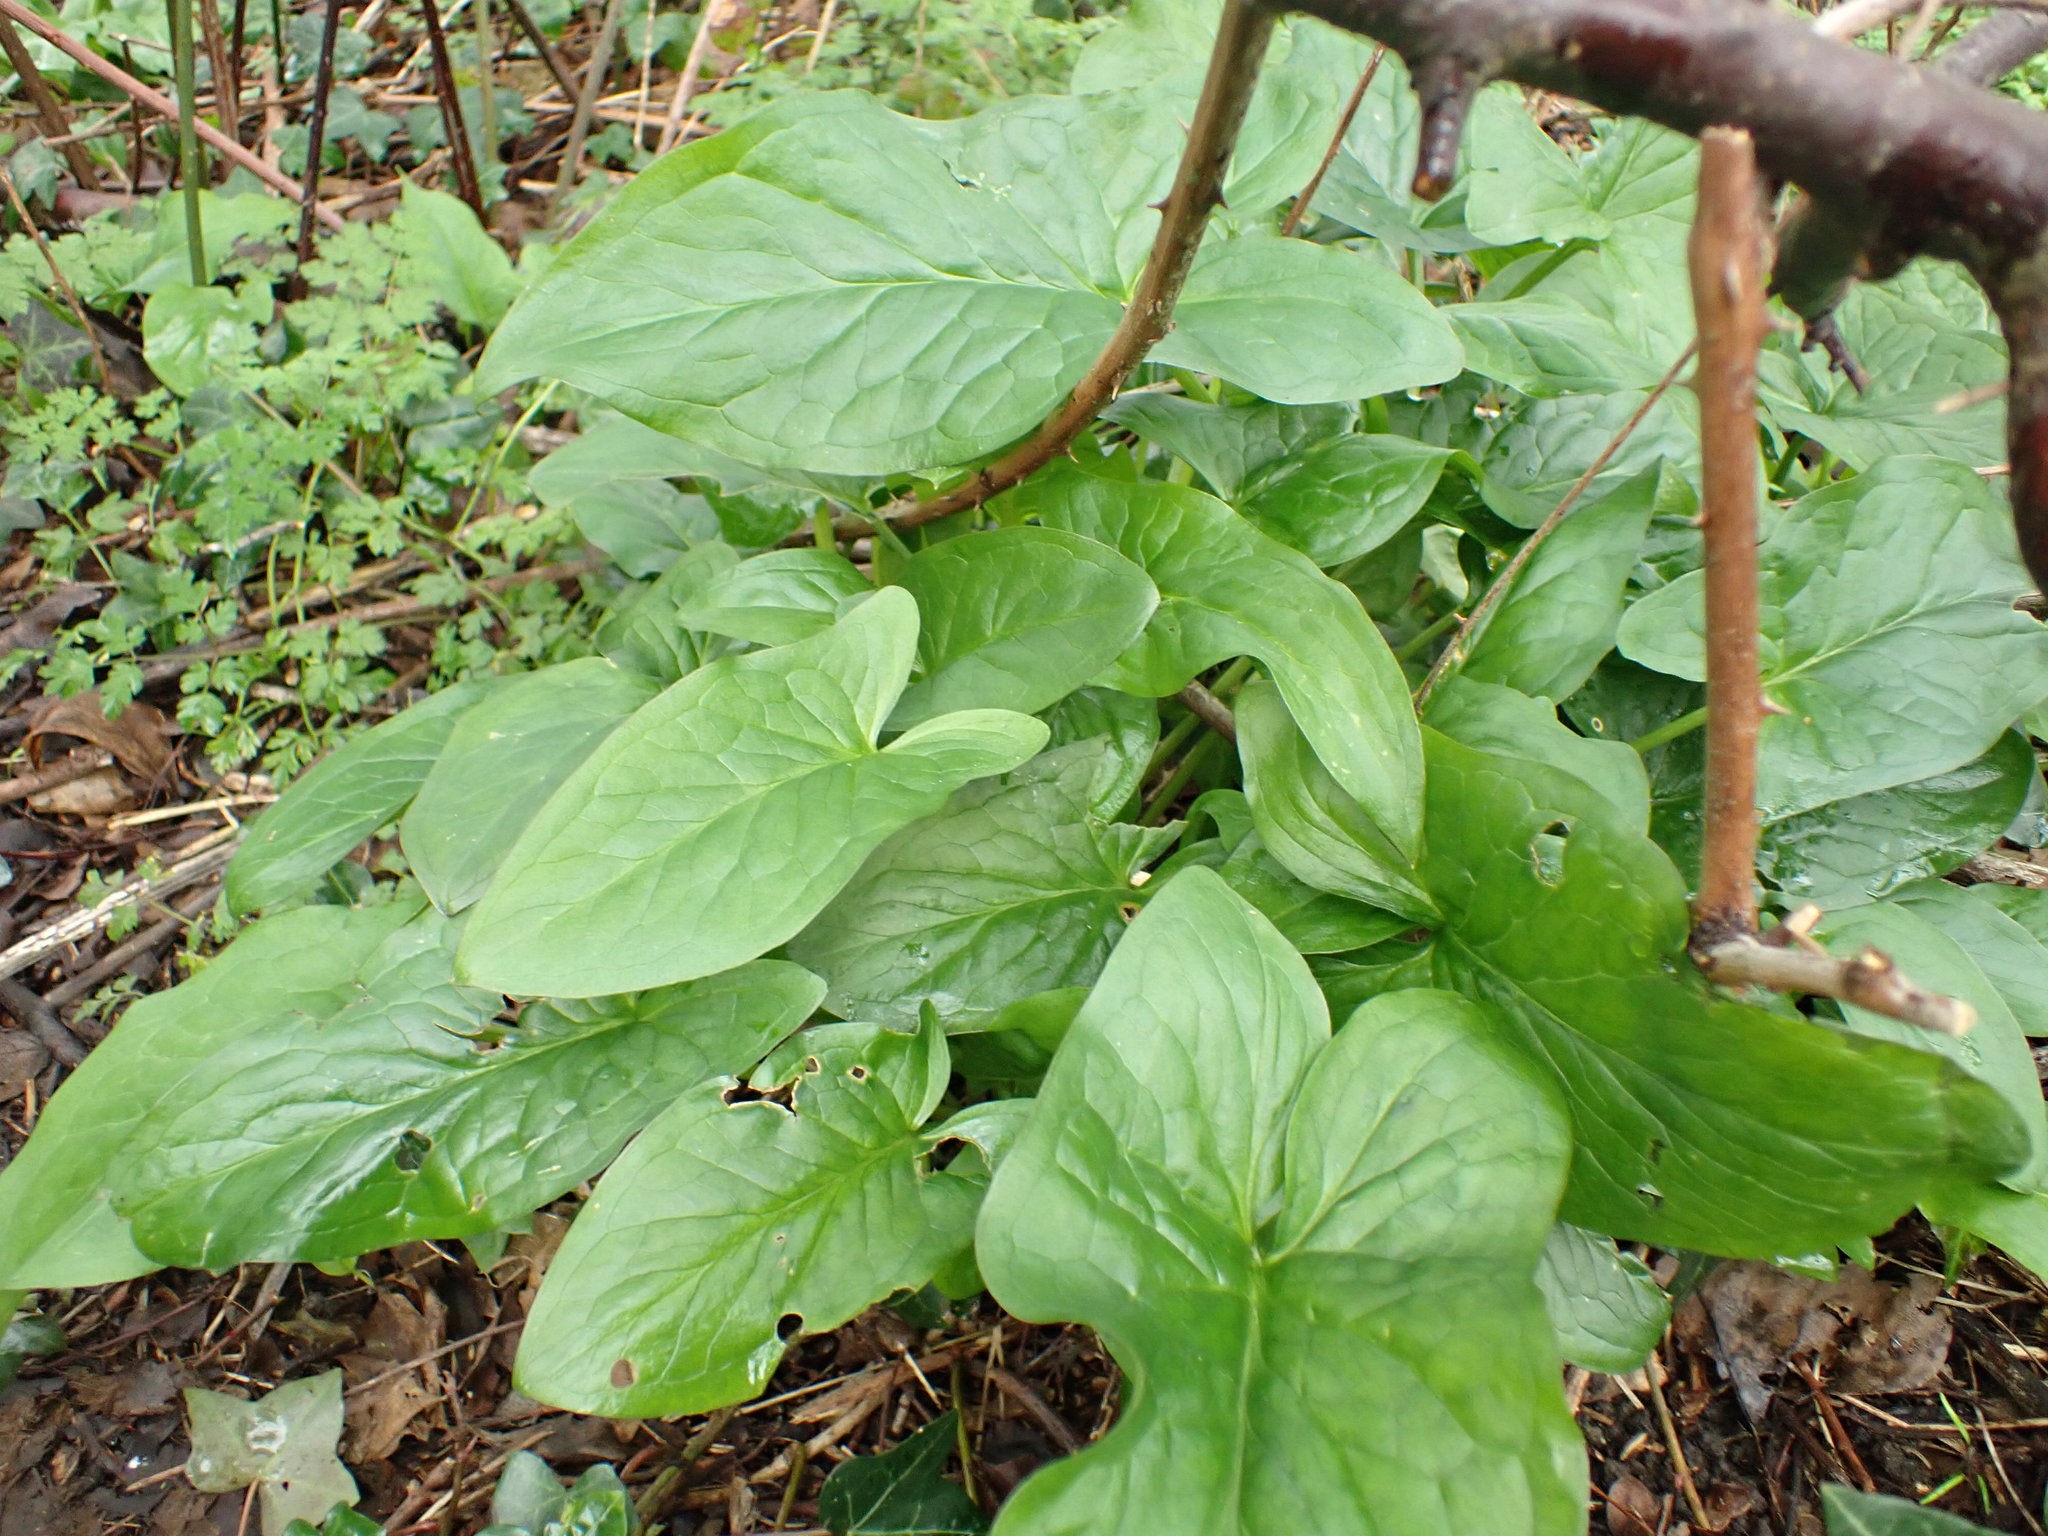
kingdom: Plantae
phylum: Tracheophyta
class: Liliopsida
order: Alismatales
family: Araceae
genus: Arum
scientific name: Arum maculatum
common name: Lords-and-ladies
